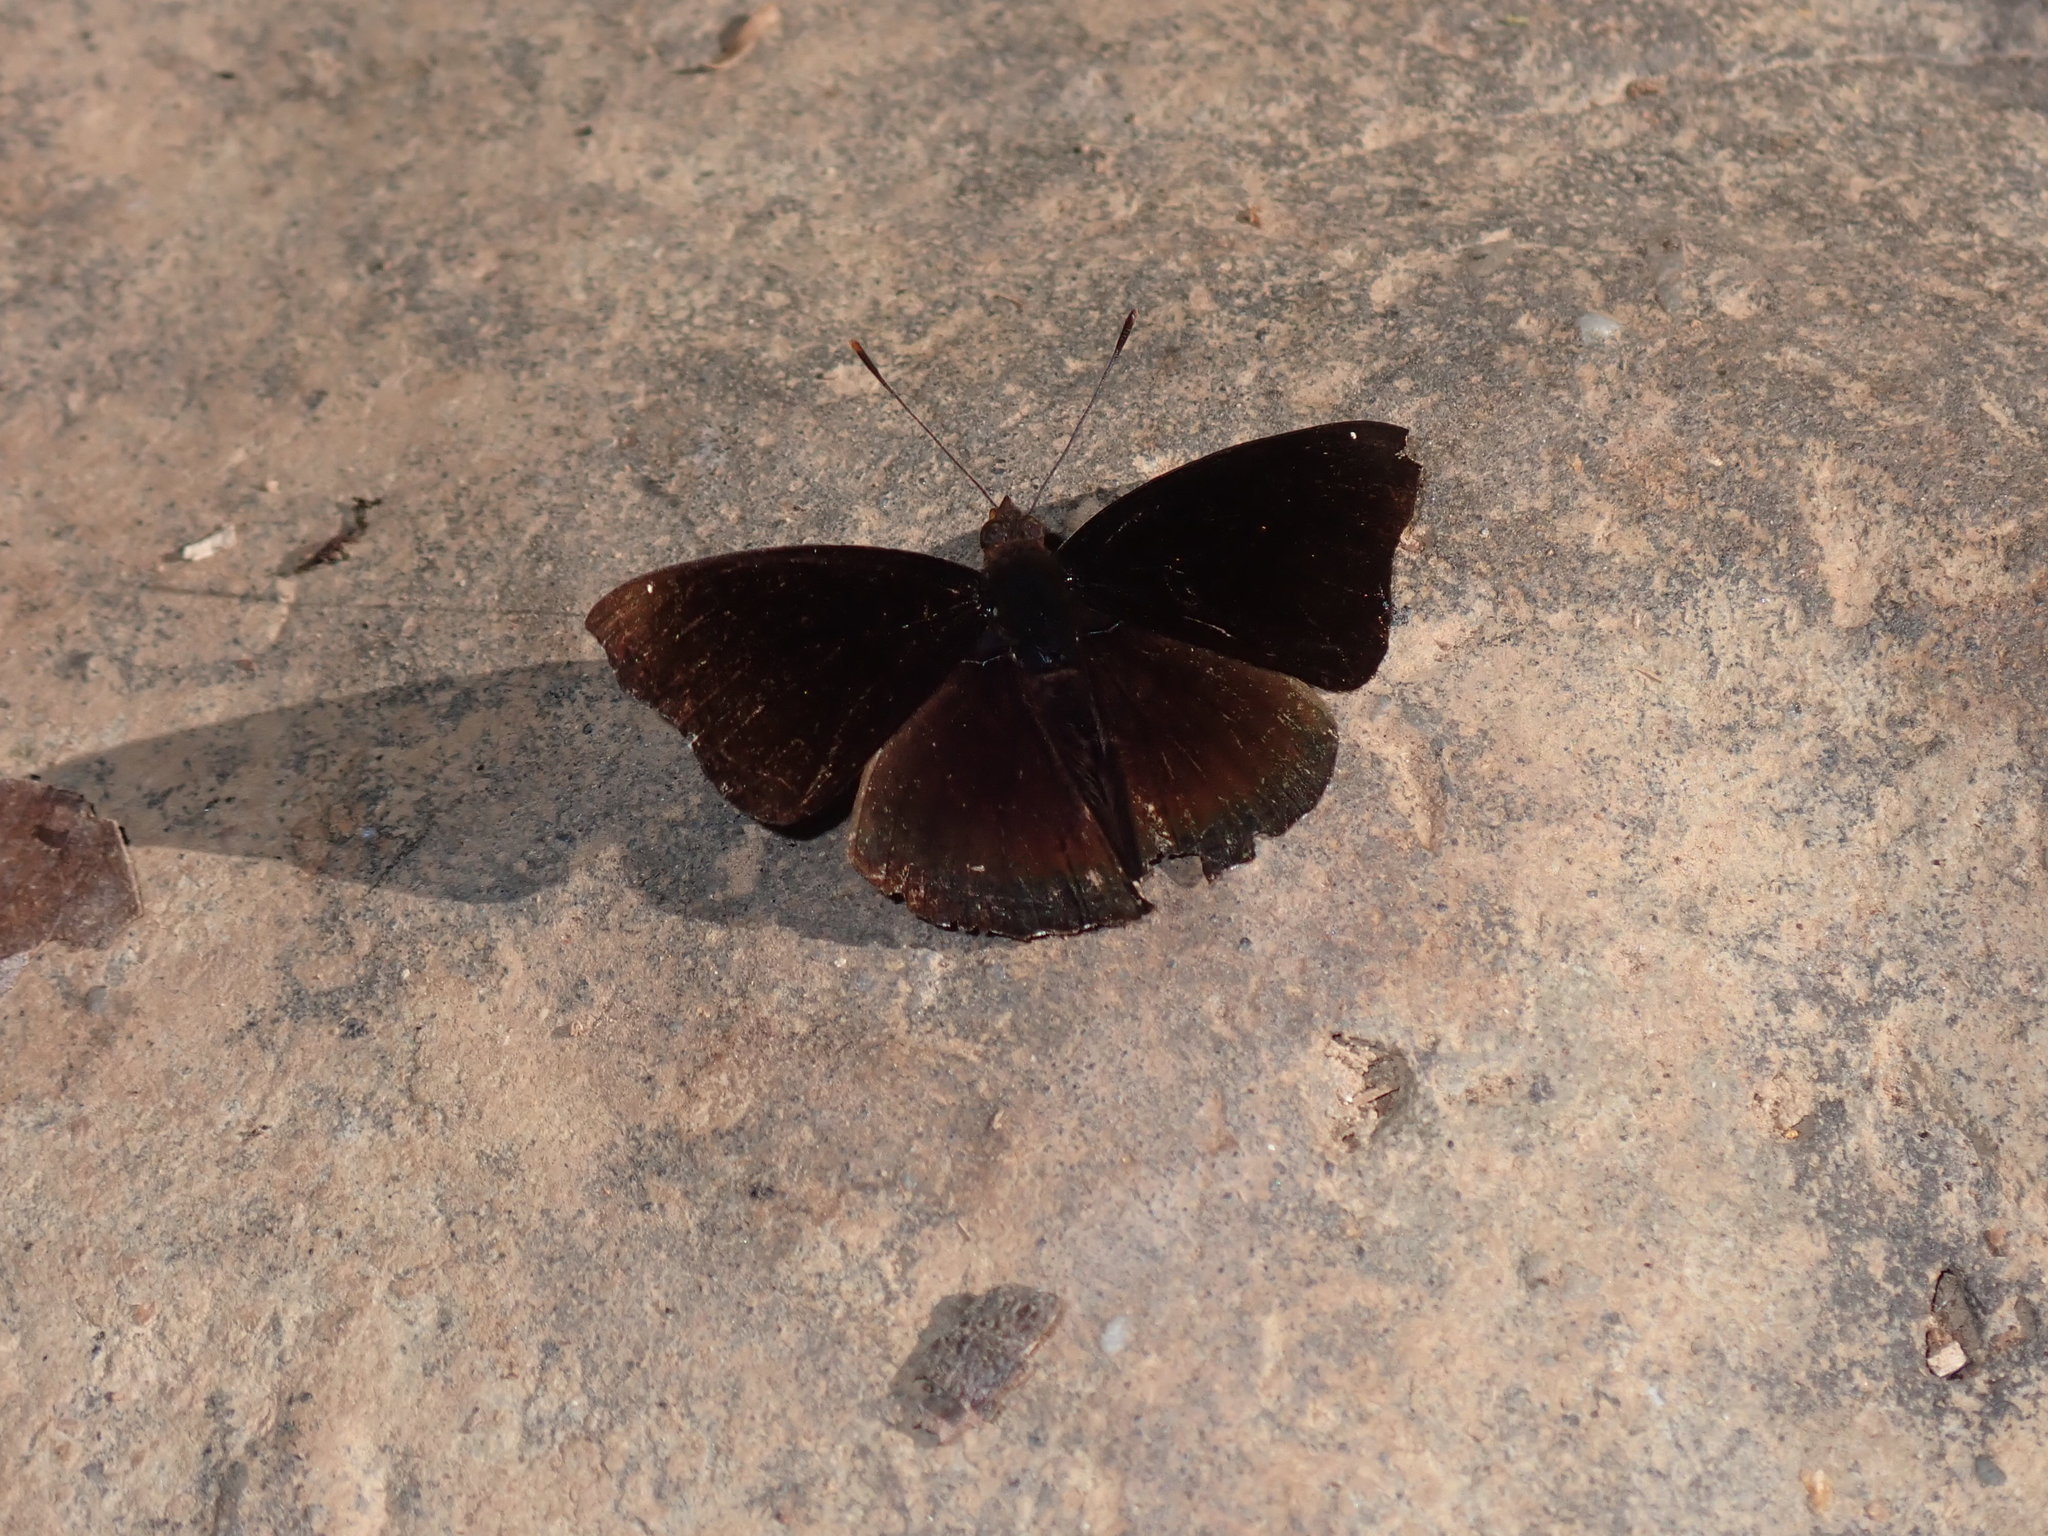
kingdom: Animalia
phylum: Arthropoda
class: Insecta
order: Lepidoptera
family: Nymphalidae
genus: Apatura
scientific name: Apatura Rohana spec
